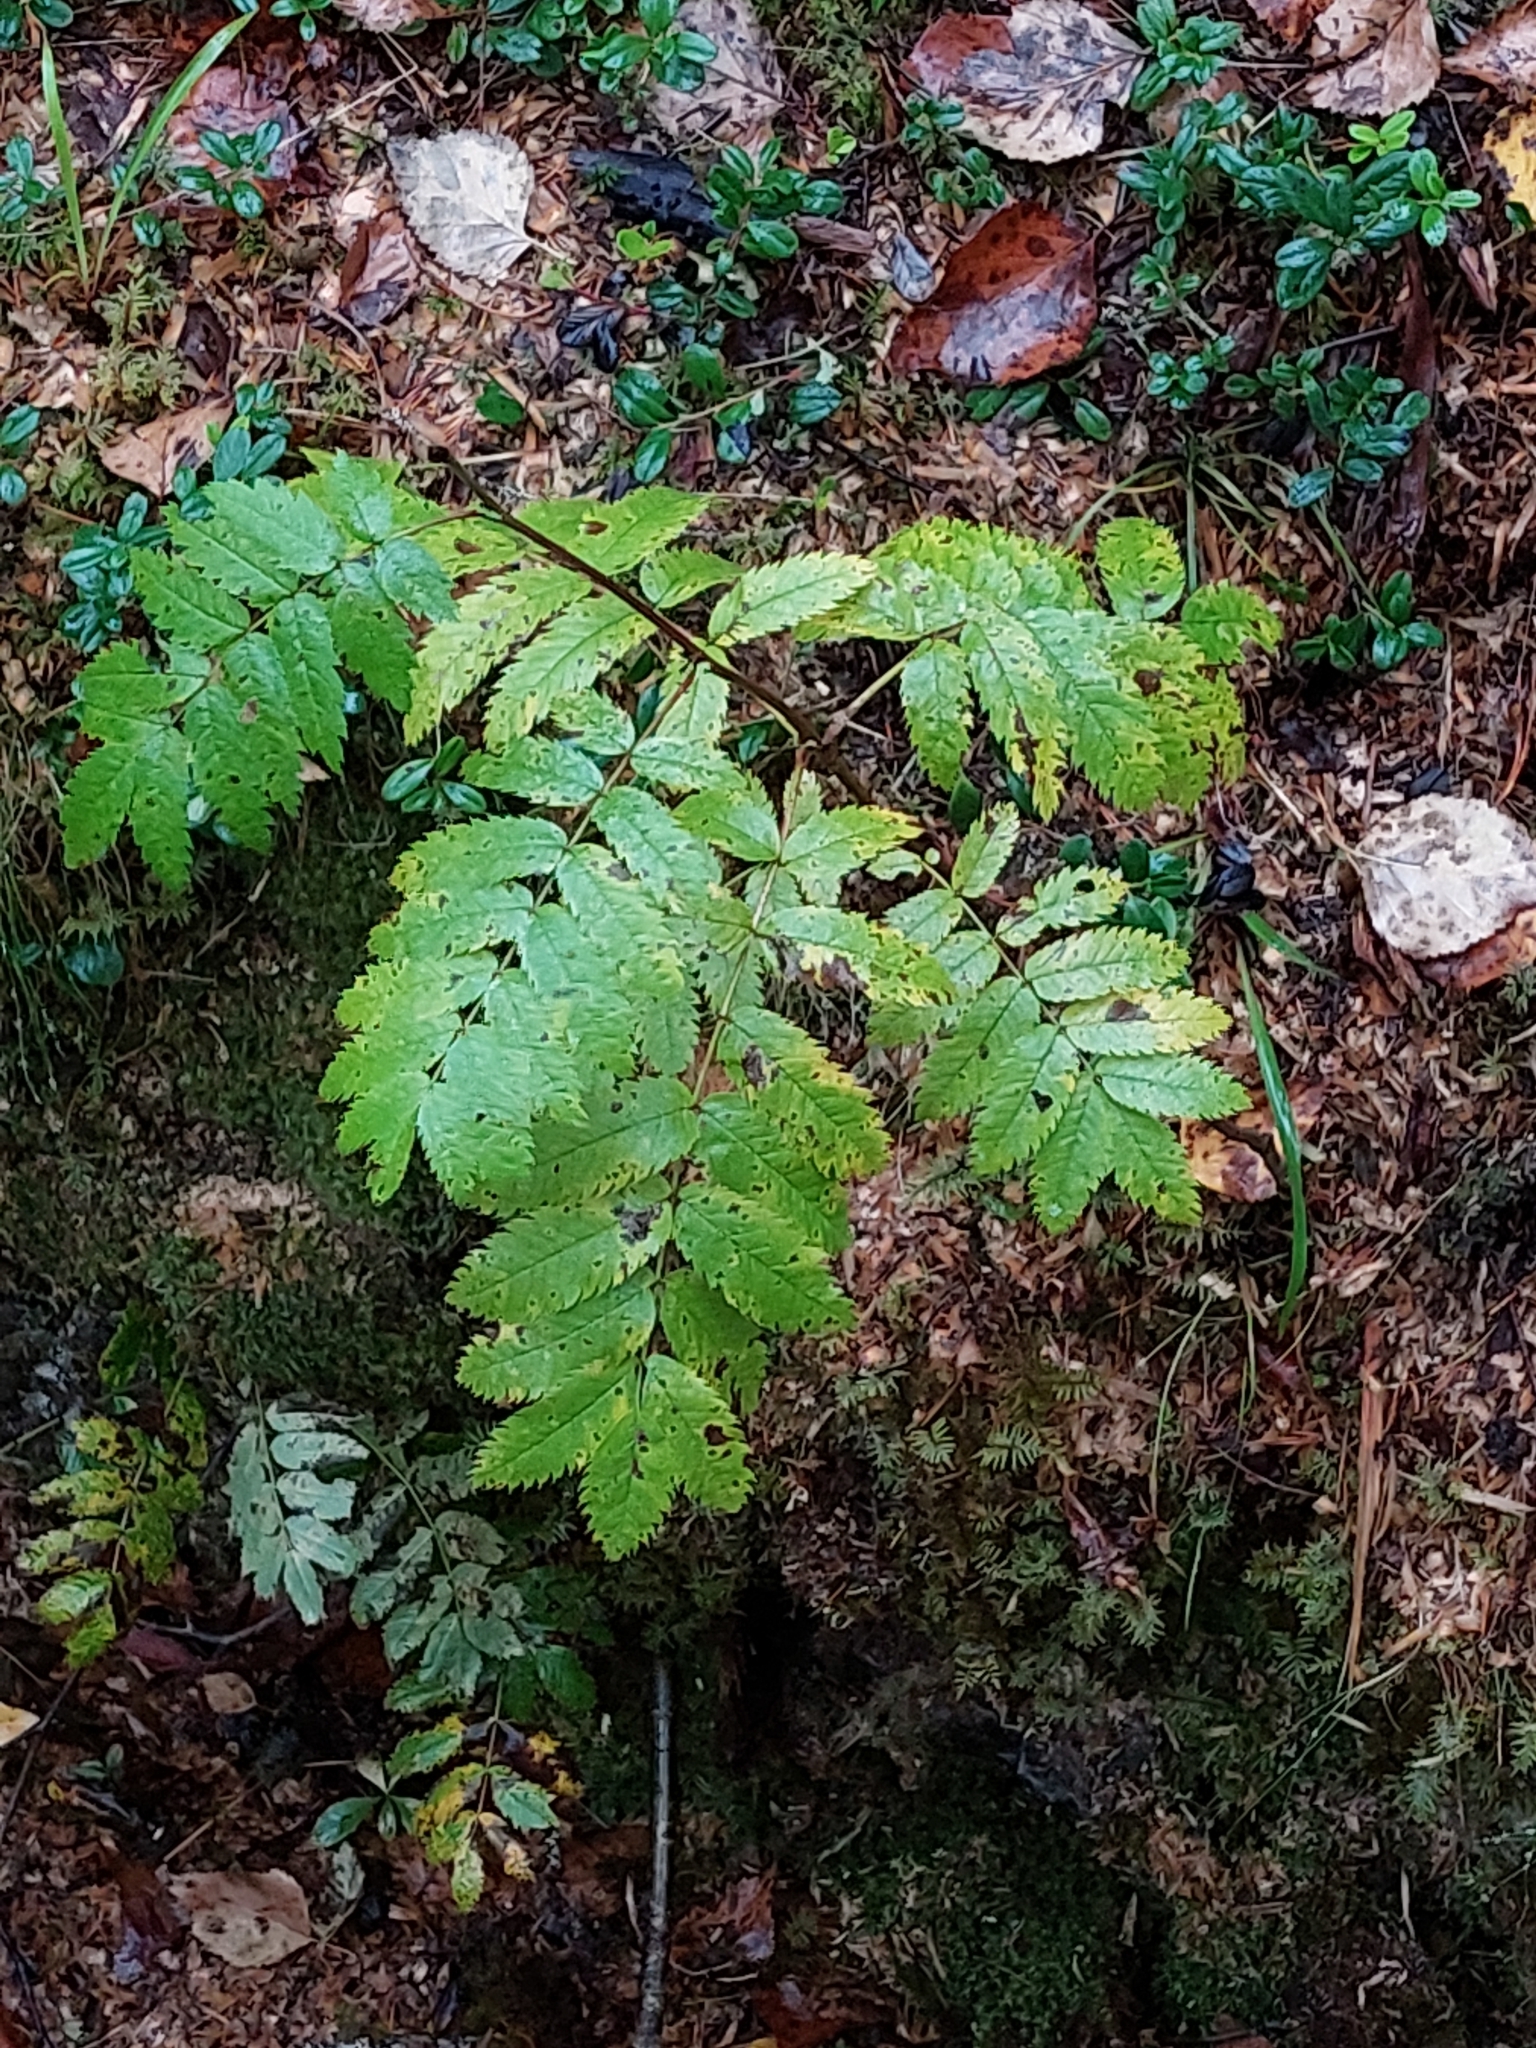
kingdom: Plantae
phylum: Tracheophyta
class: Magnoliopsida
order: Rosales
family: Rosaceae
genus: Sorbus
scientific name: Sorbus aucuparia
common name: Rowan
